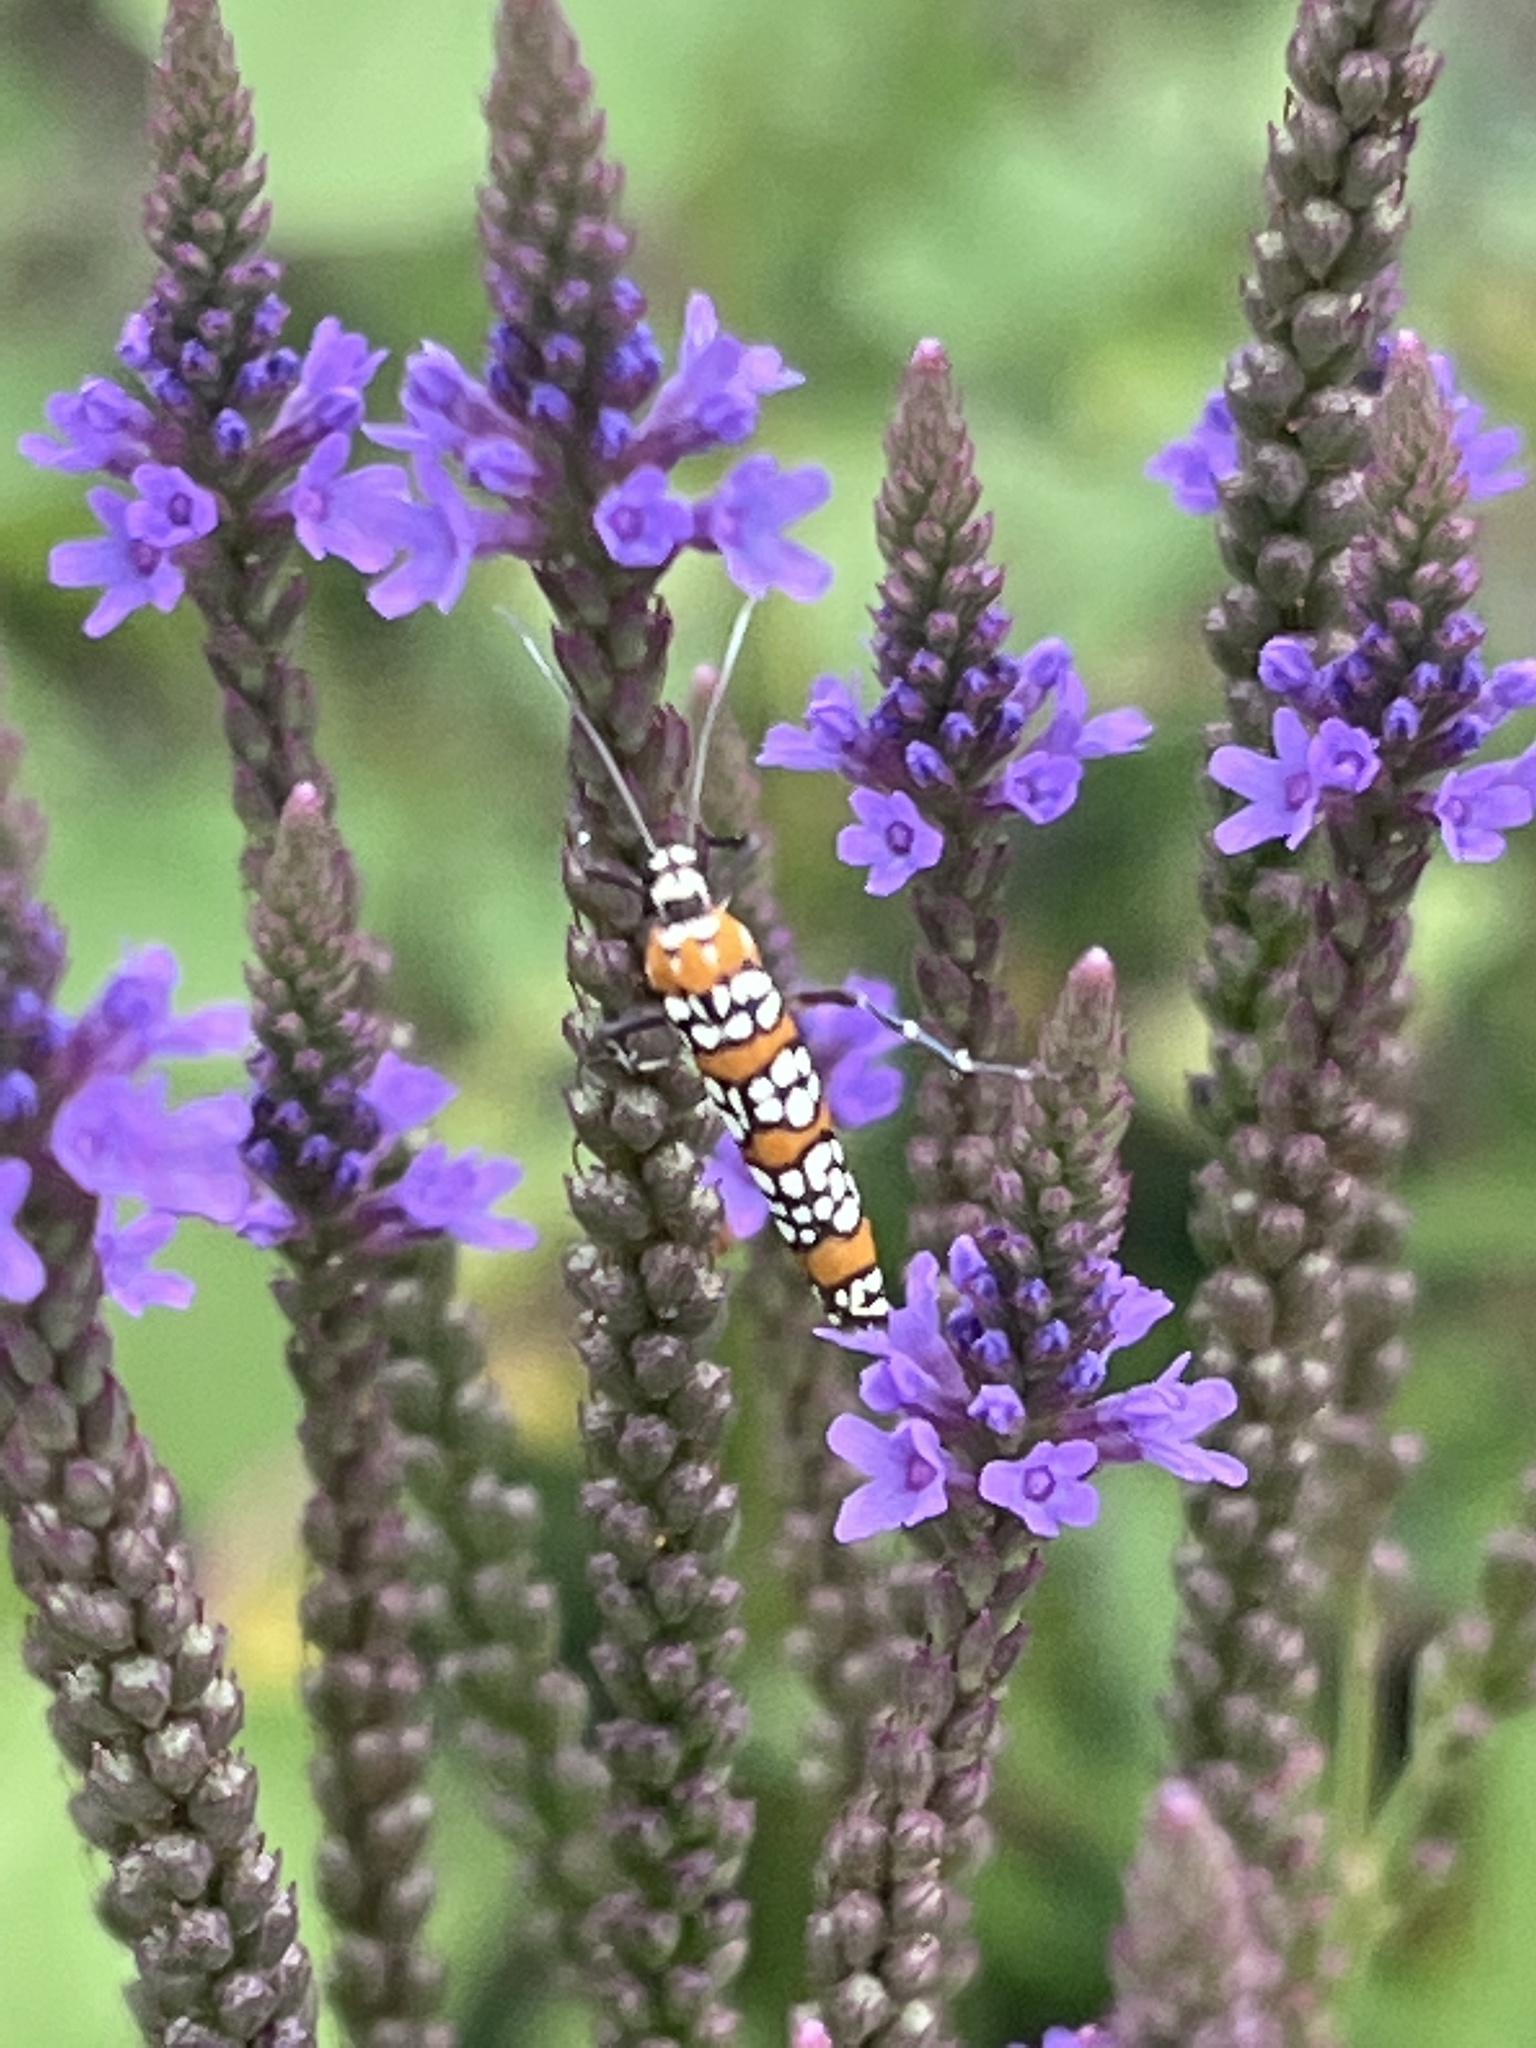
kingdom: Animalia
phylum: Arthropoda
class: Insecta
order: Lepidoptera
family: Attevidae
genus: Atteva
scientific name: Atteva punctella
